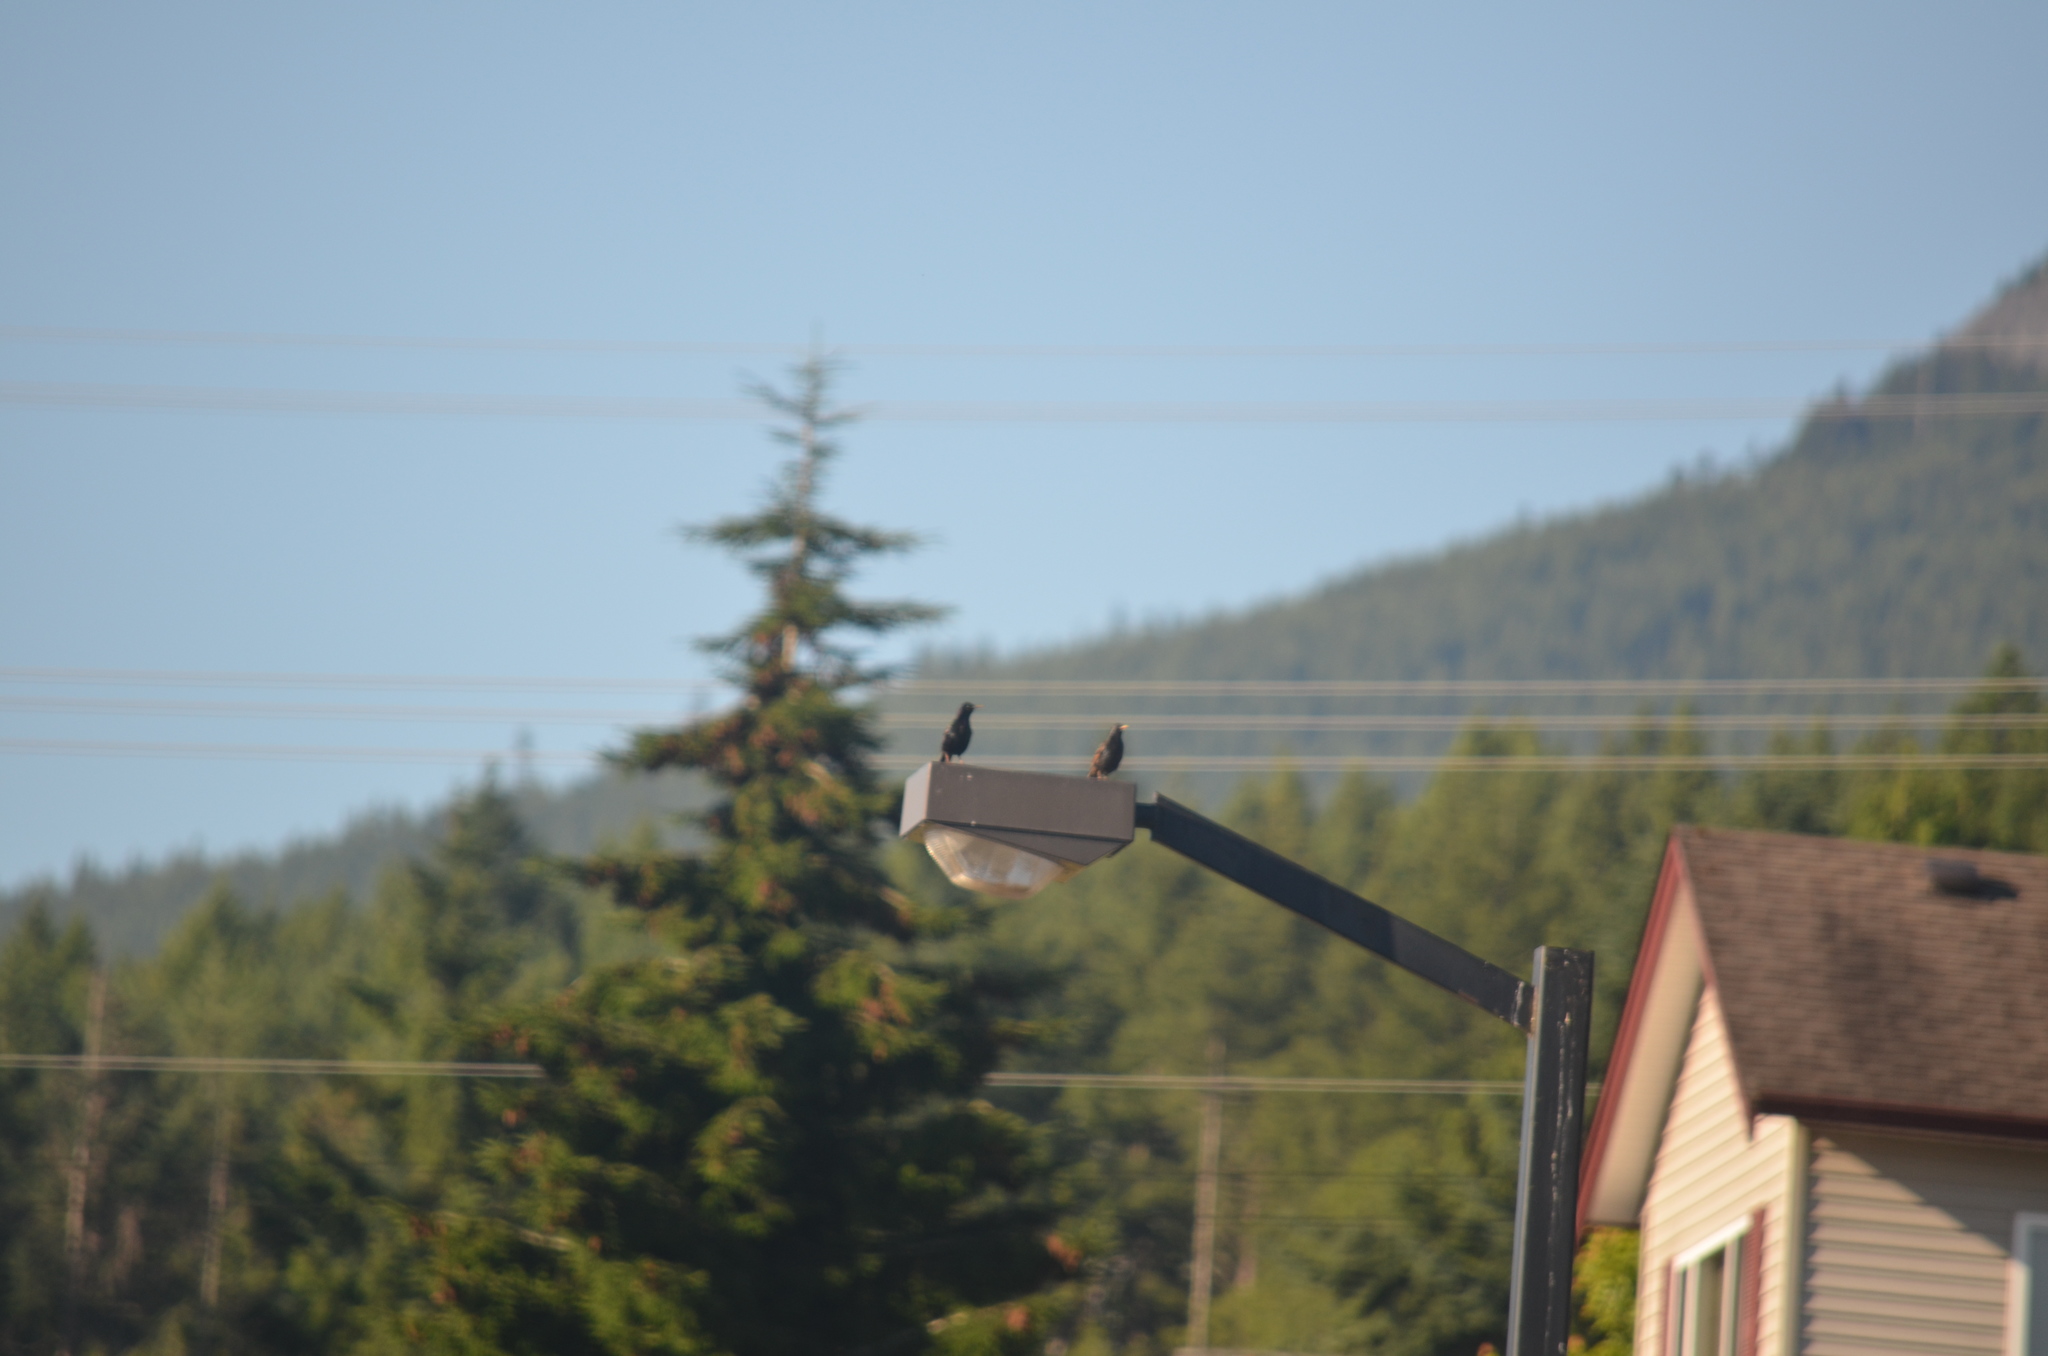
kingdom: Animalia
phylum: Chordata
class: Aves
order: Passeriformes
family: Sturnidae
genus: Sturnus
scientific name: Sturnus vulgaris
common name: Common starling
